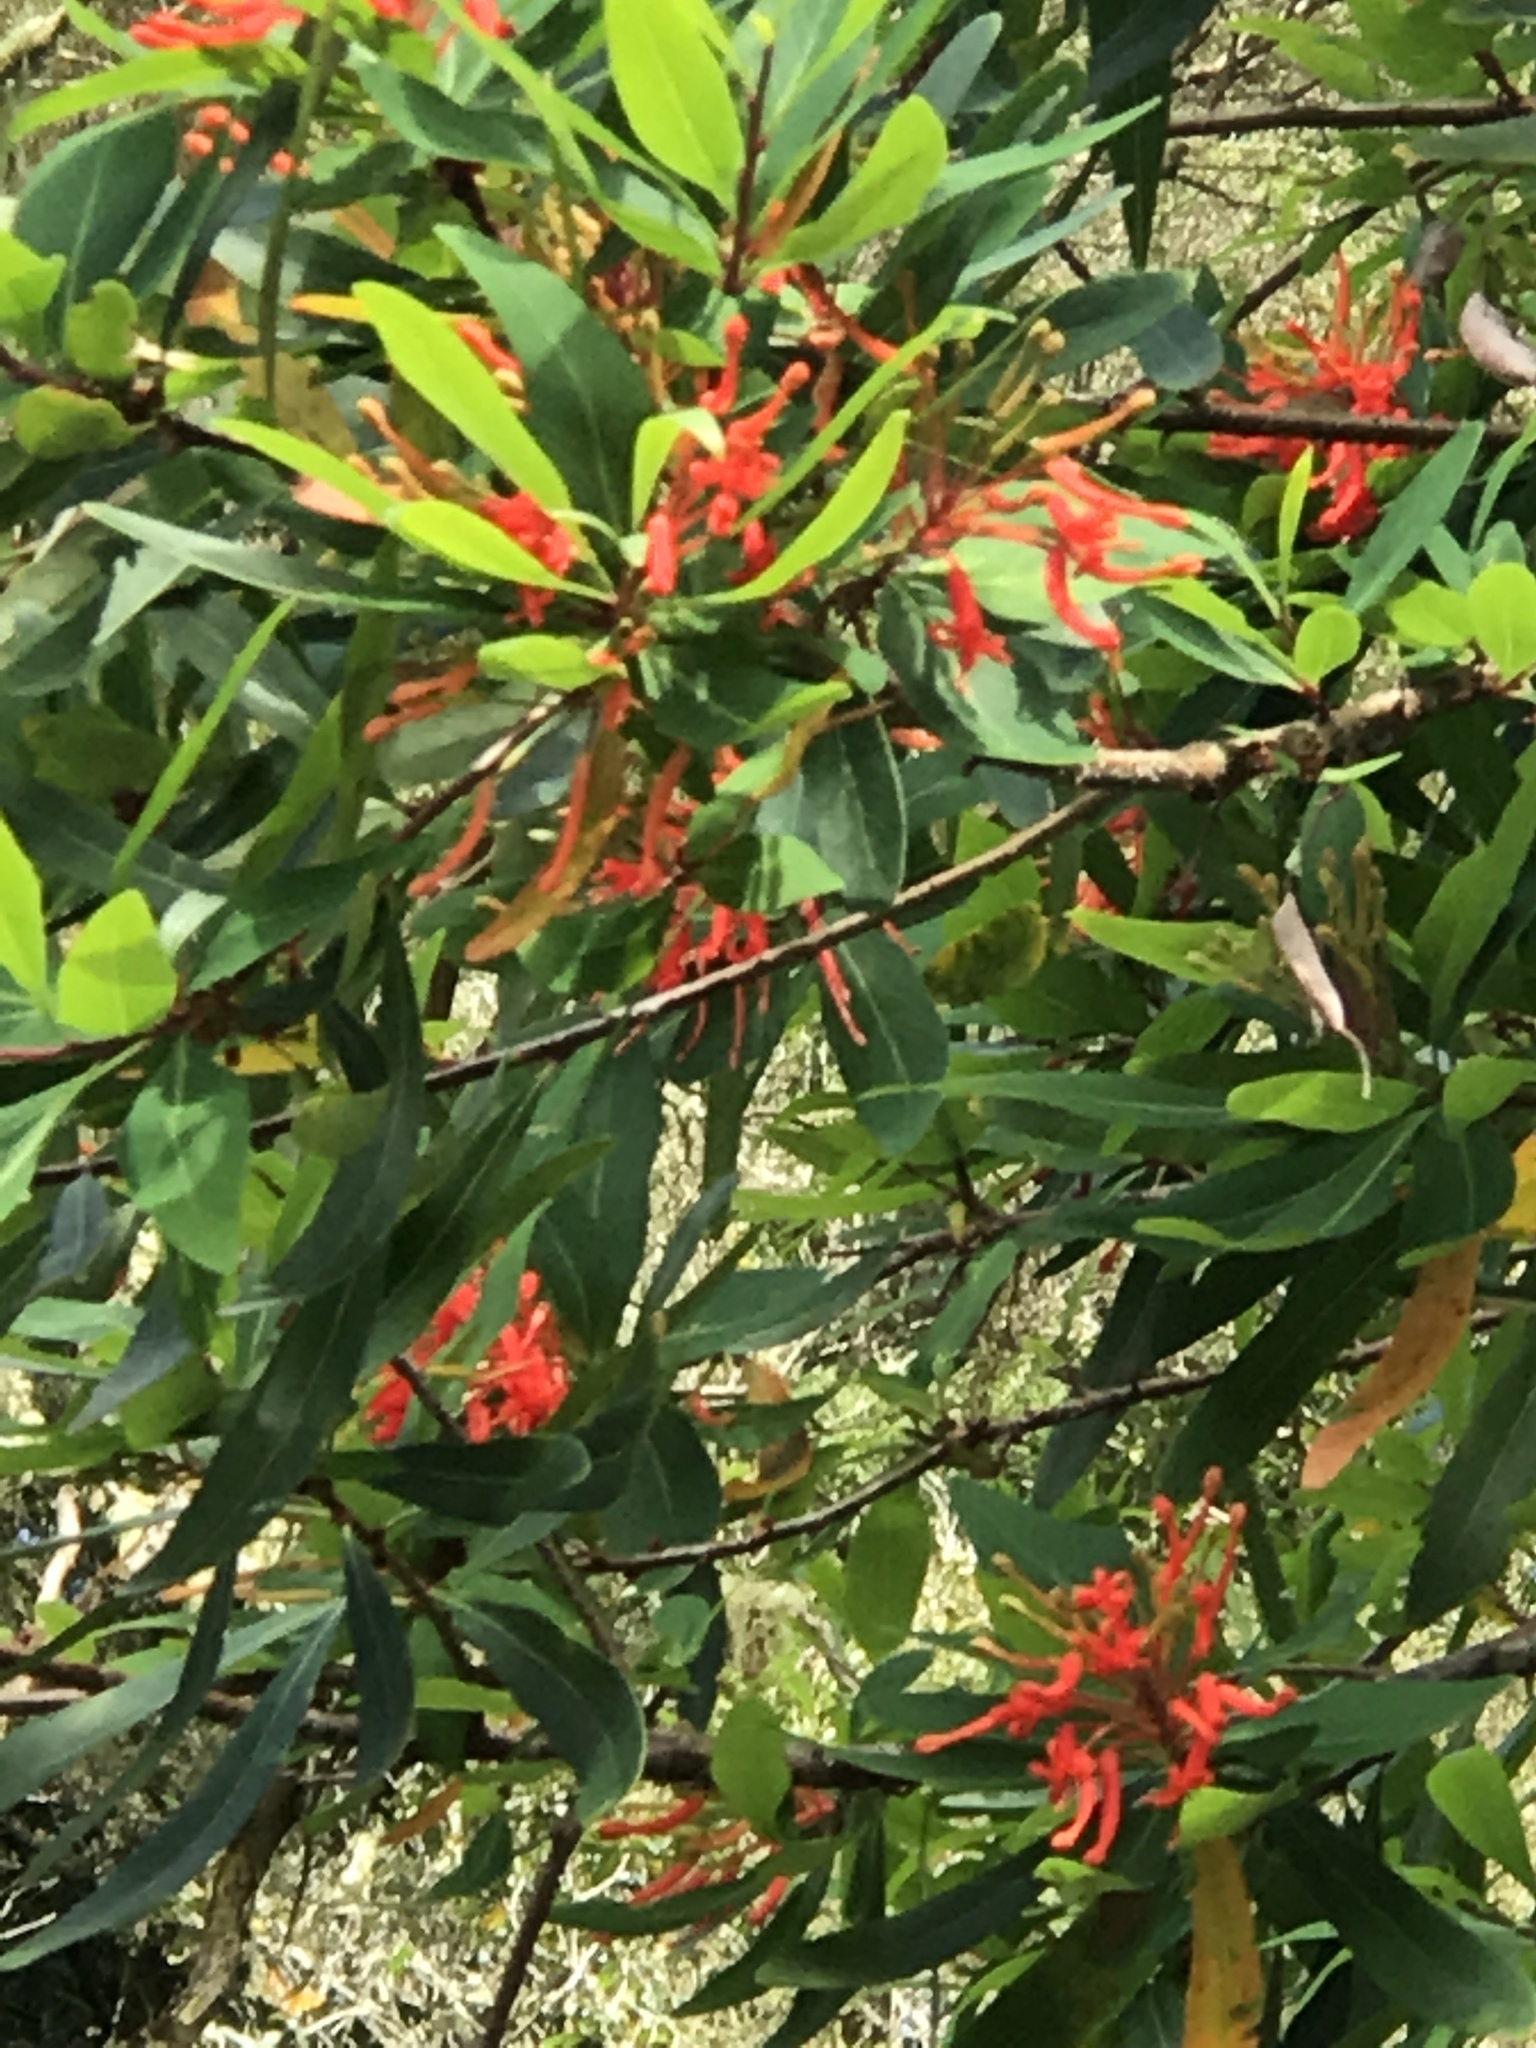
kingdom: Plantae
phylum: Tracheophyta
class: Magnoliopsida
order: Proteales
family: Proteaceae
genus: Embothrium
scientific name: Embothrium coccineum
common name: Chilean firebush
